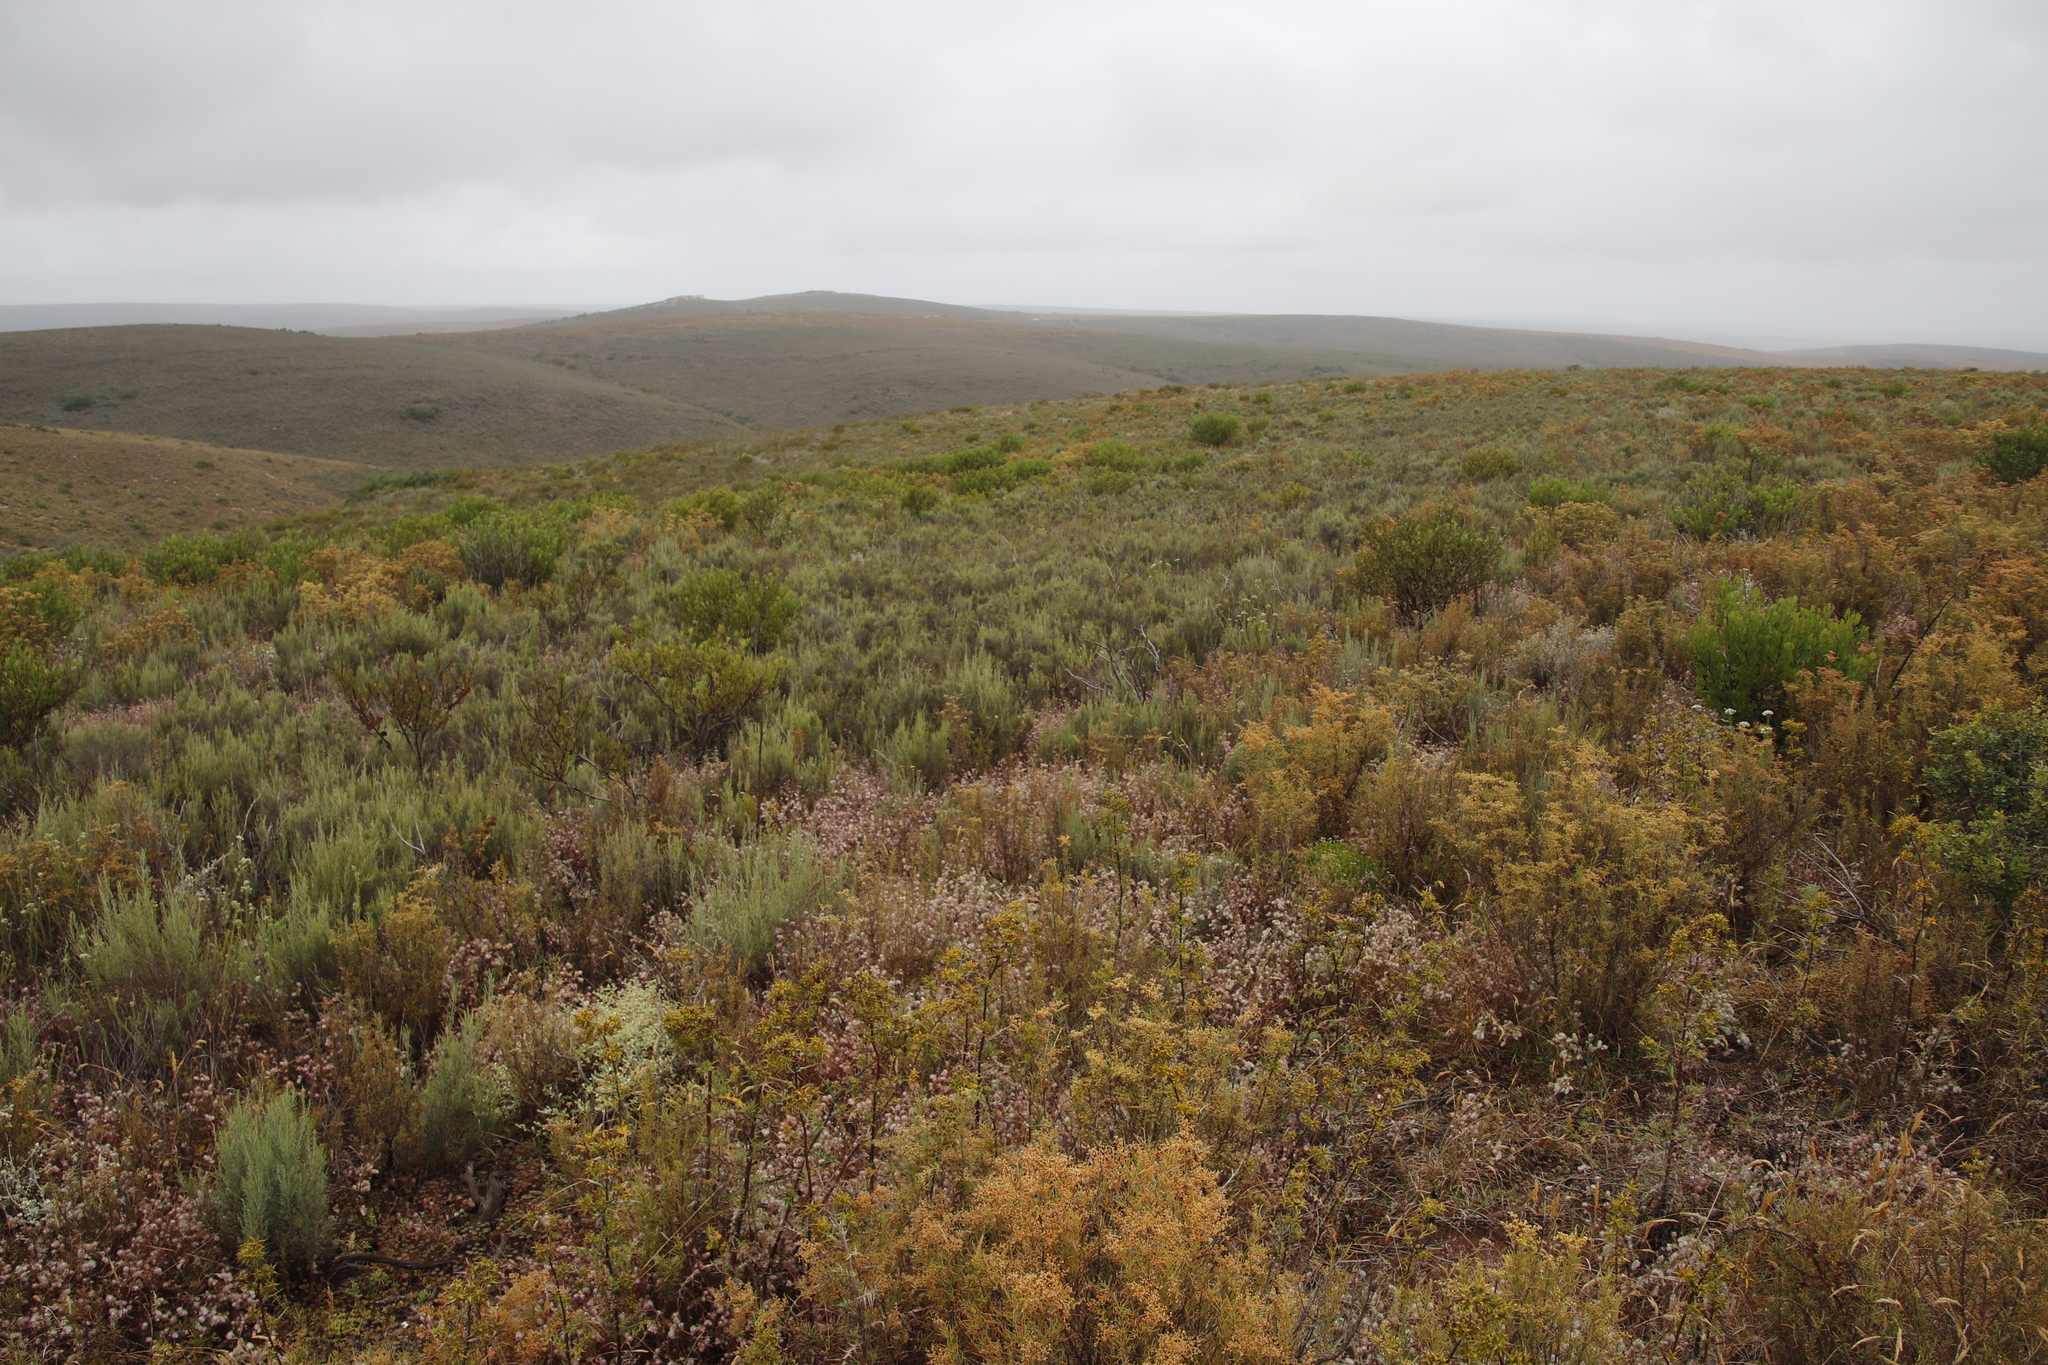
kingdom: Plantae
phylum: Tracheophyta
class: Magnoliopsida
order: Asterales
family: Asteraceae
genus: Dicerothamnus
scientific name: Dicerothamnus rhinocerotis
